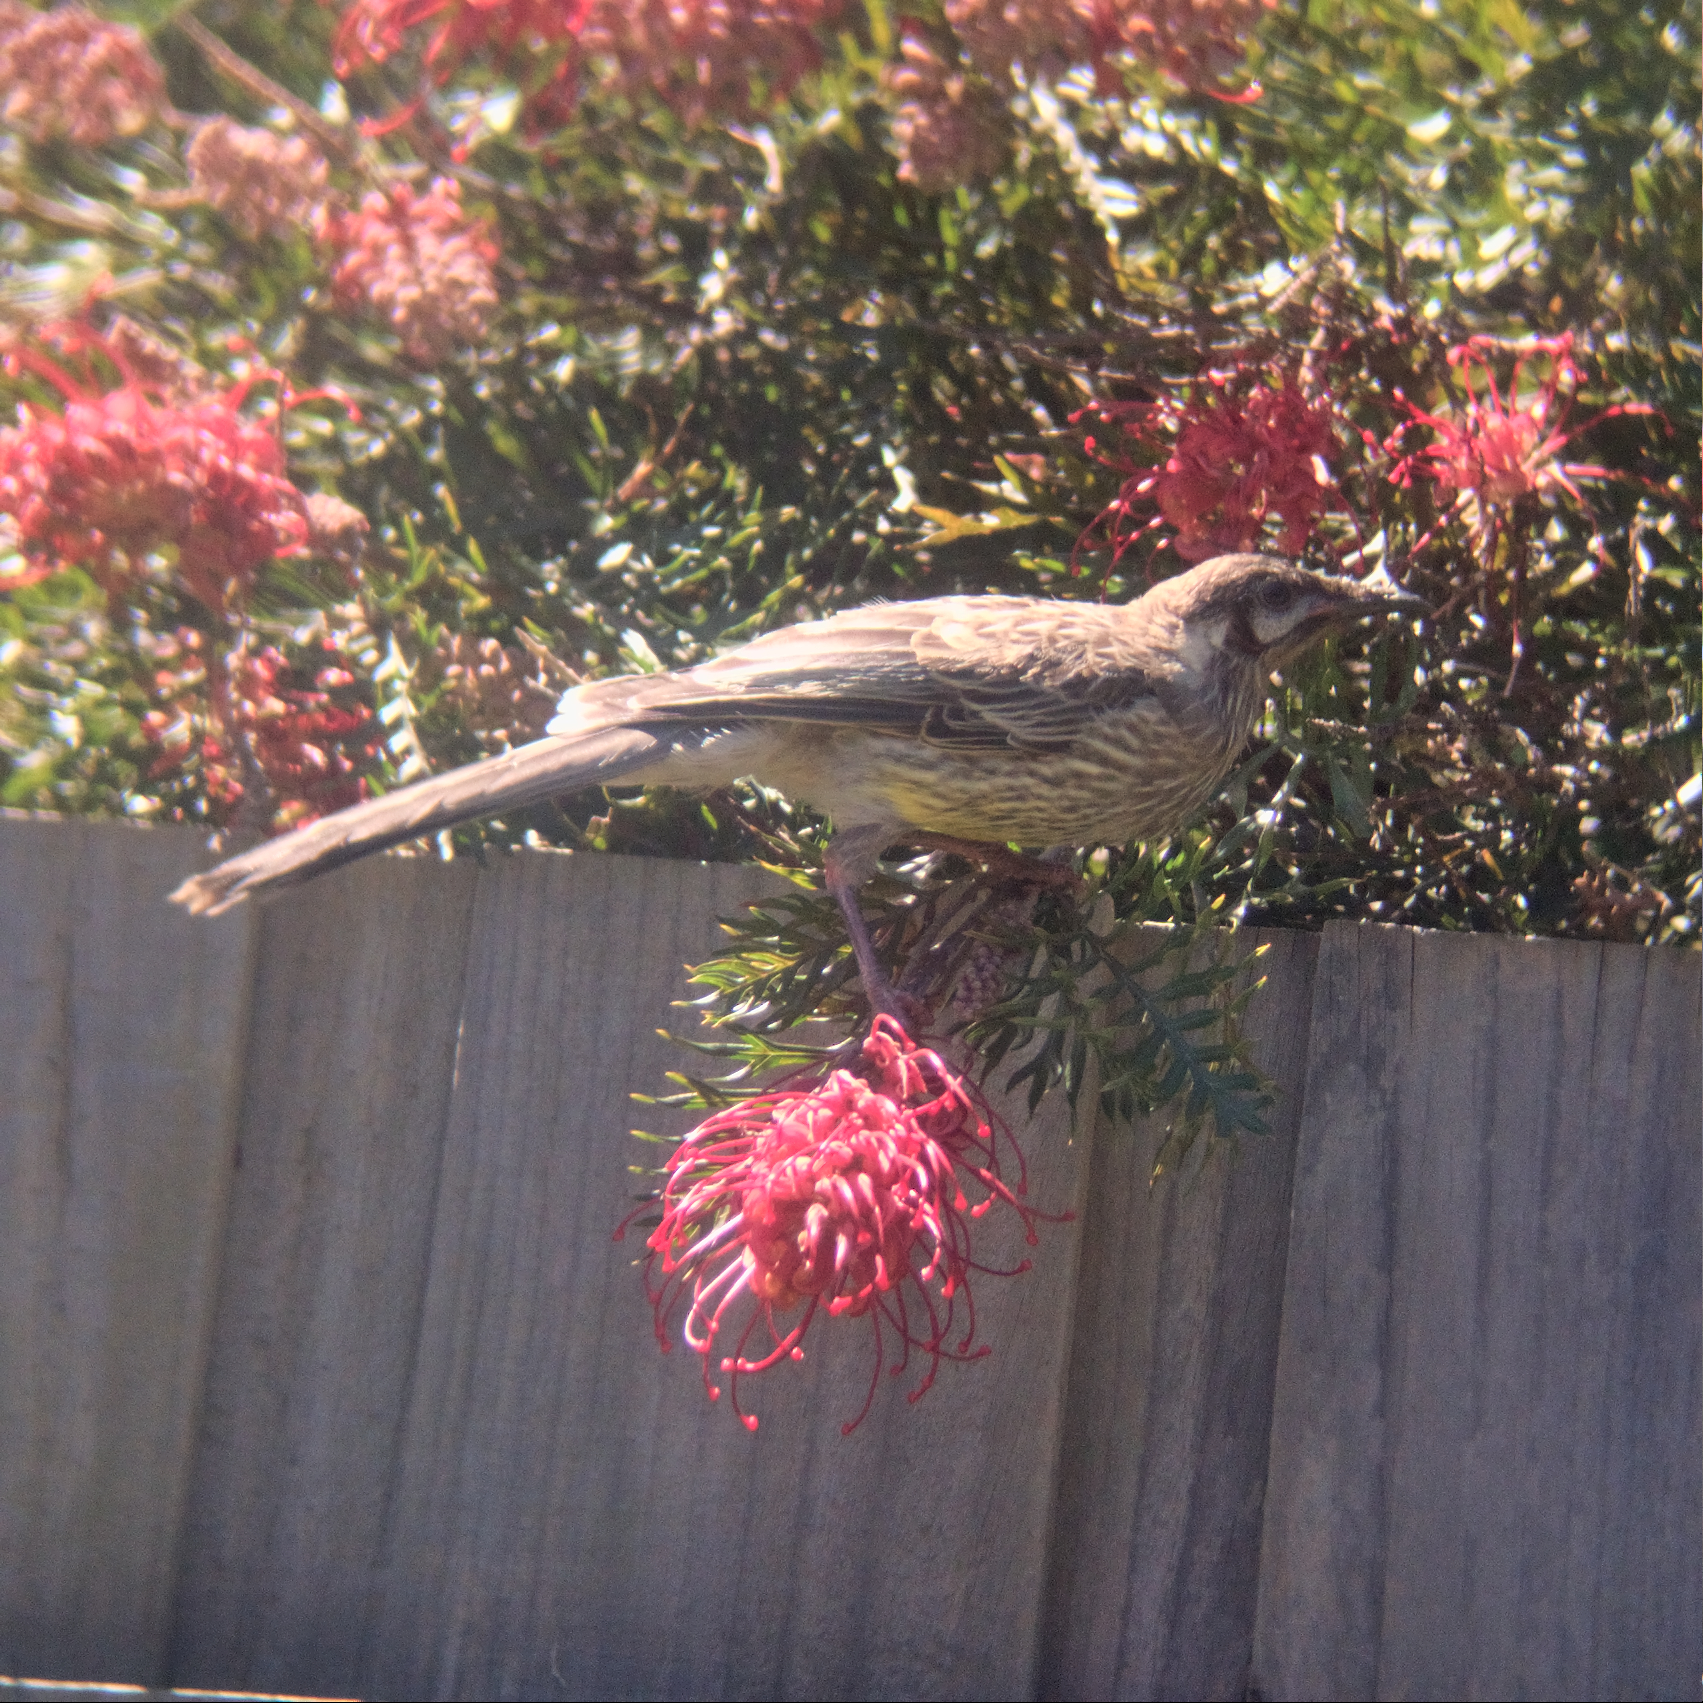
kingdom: Animalia
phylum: Chordata
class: Aves
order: Passeriformes
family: Meliphagidae
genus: Anthochaera
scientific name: Anthochaera carunculata
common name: Red wattlebird
